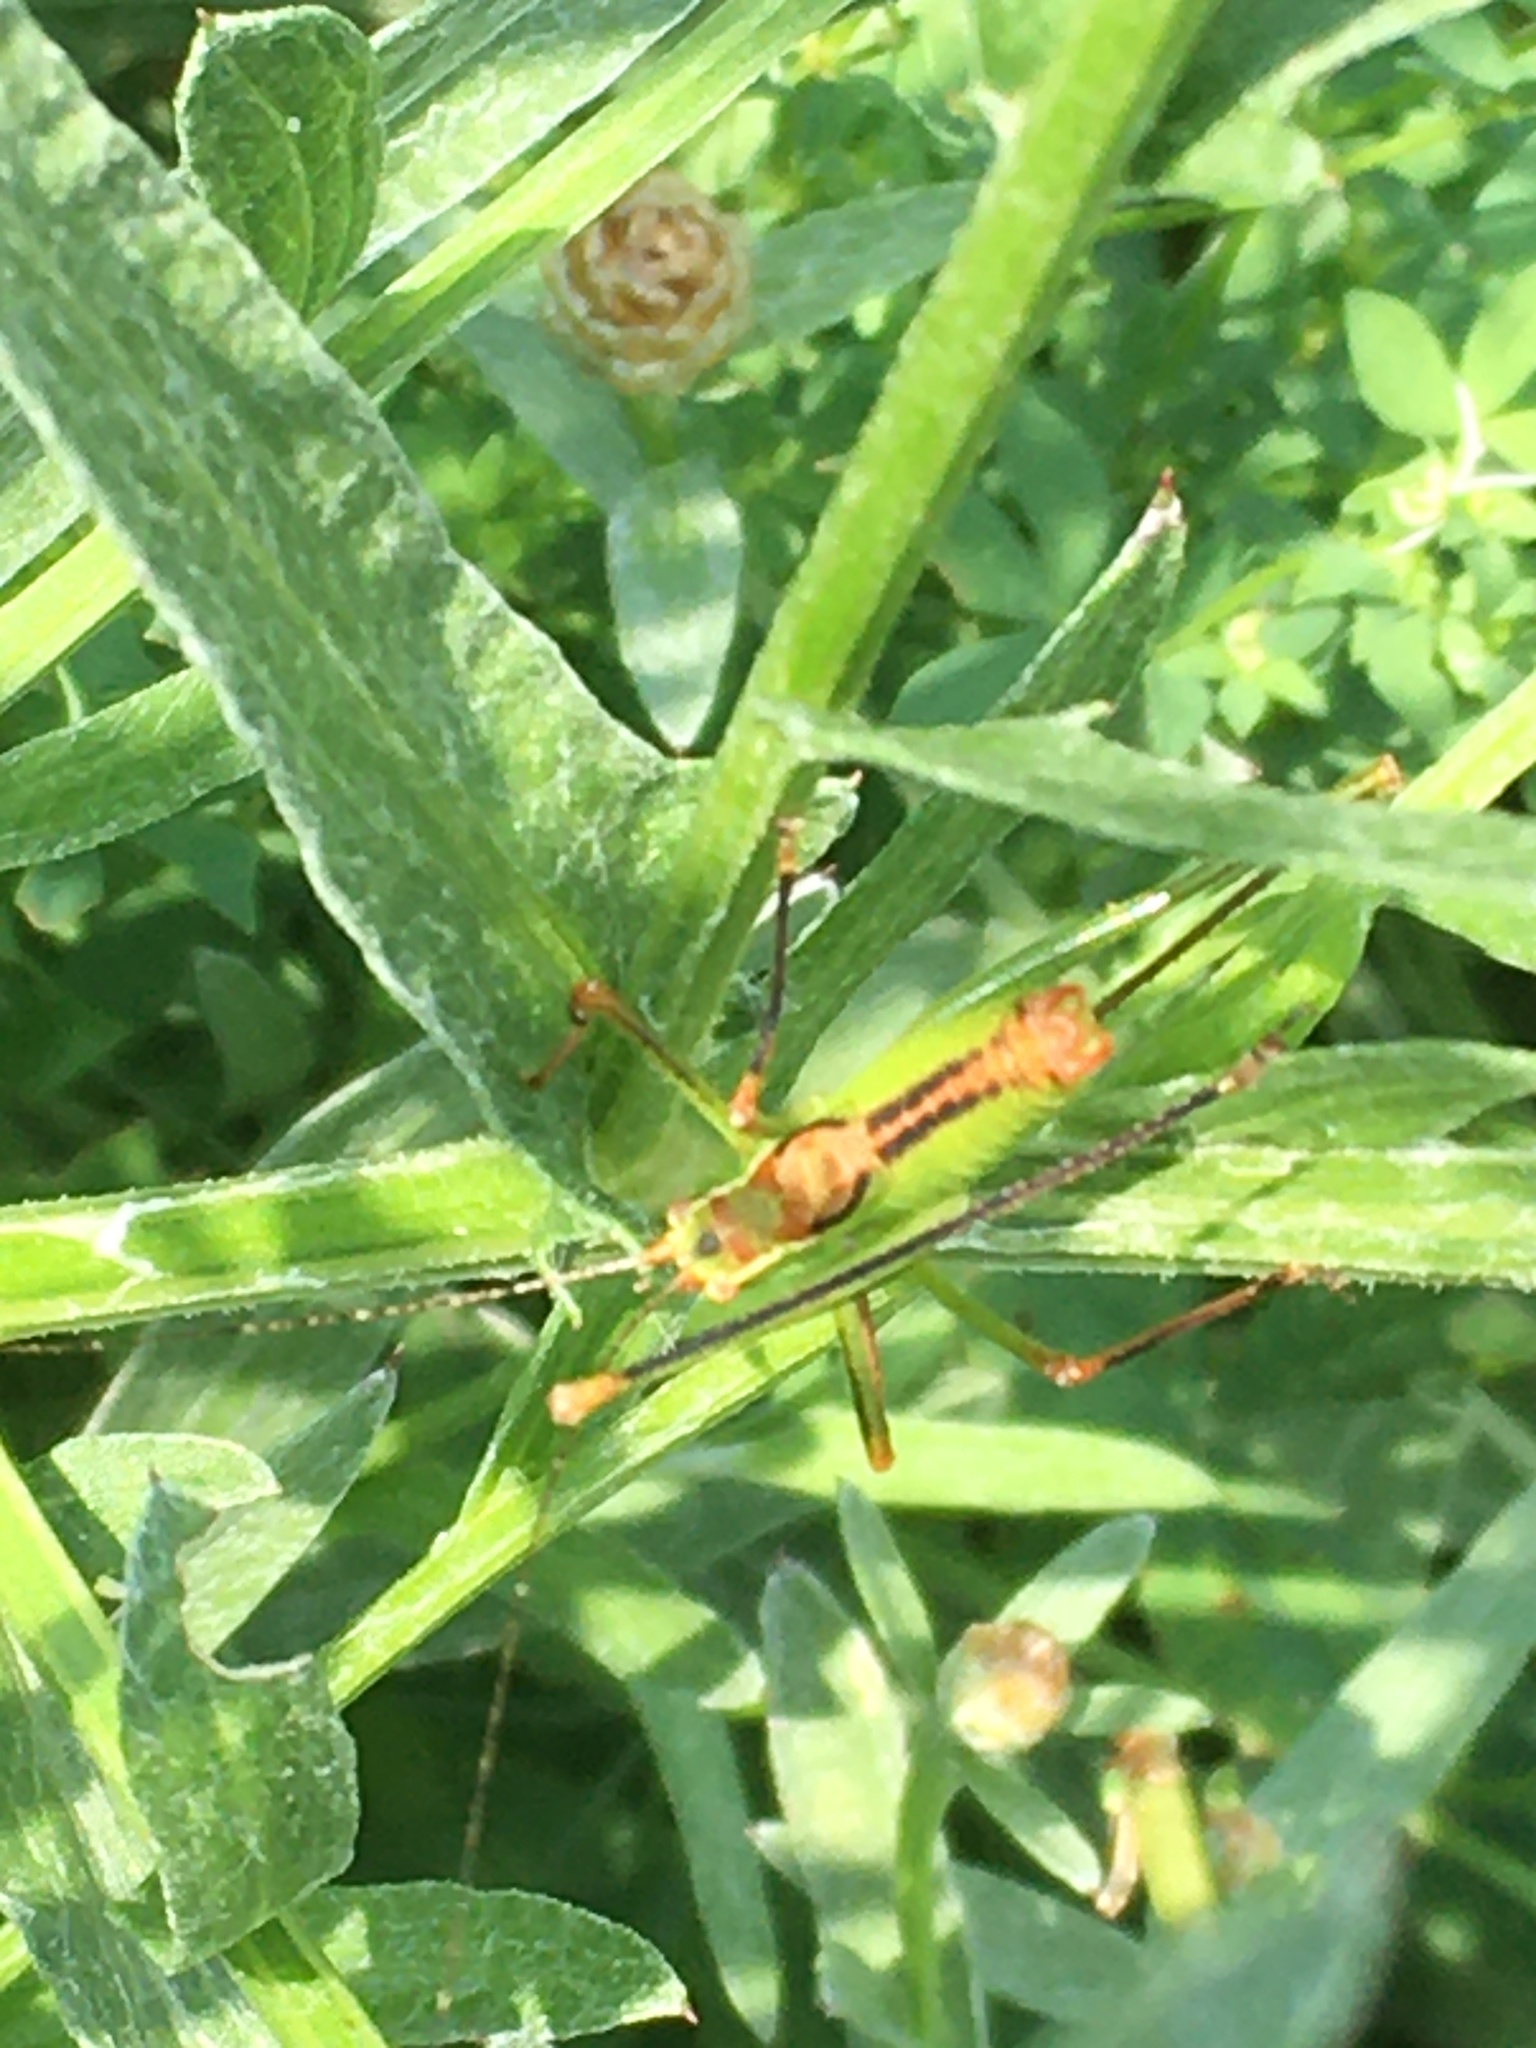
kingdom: Animalia
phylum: Arthropoda
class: Insecta
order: Orthoptera
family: Tettigoniidae
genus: Leptophyes
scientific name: Leptophyes punctatissima
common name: Speckled bush-cricket
